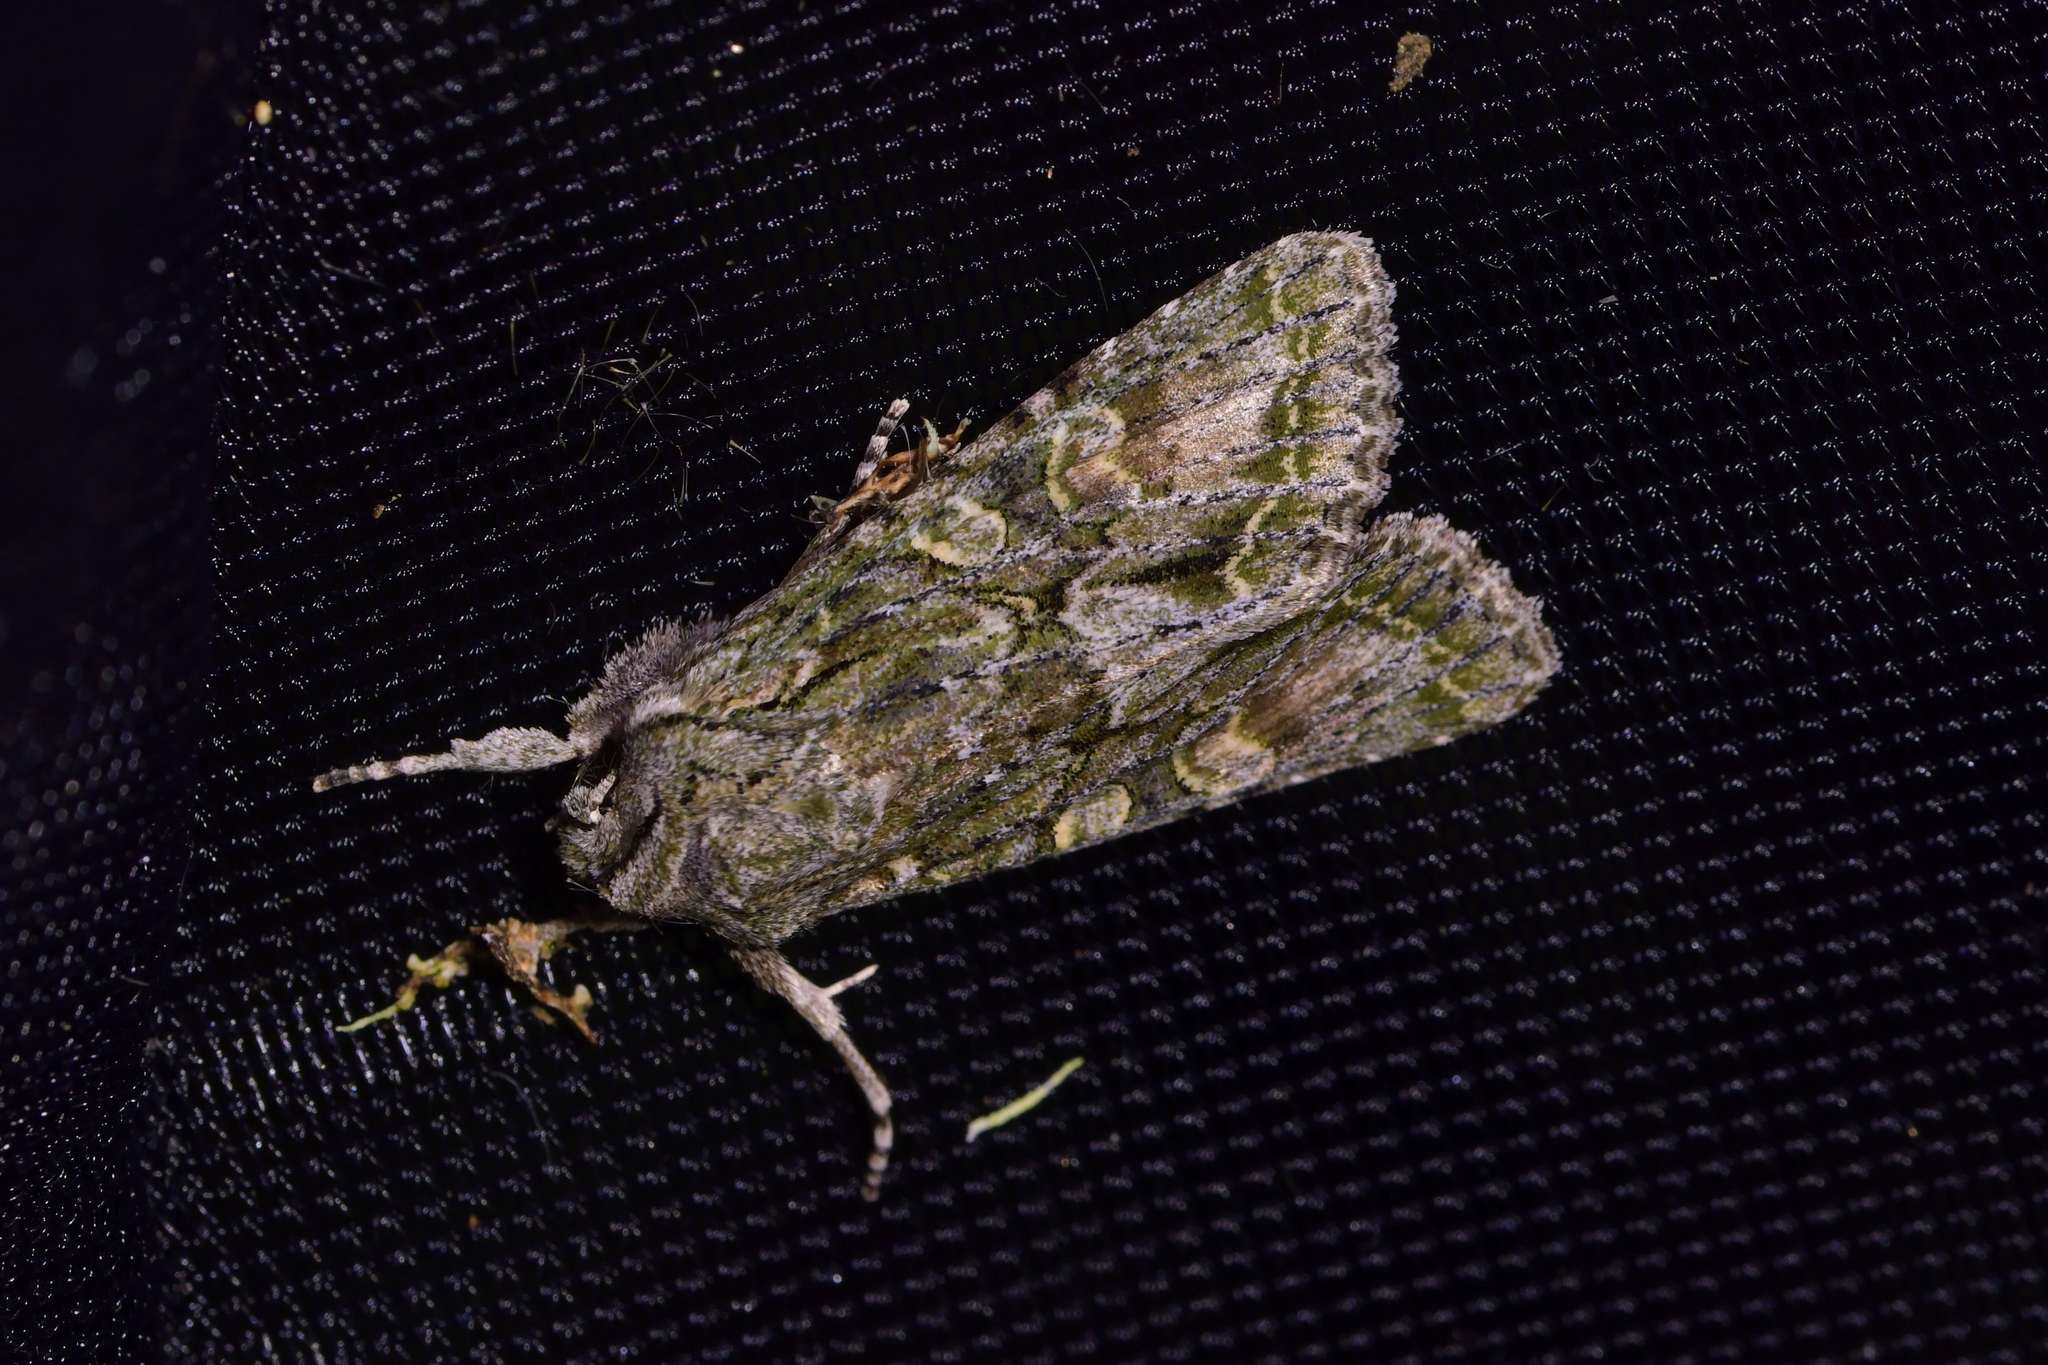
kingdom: Animalia
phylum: Arthropoda
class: Insecta
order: Lepidoptera
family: Noctuidae
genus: Ichneutica
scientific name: Ichneutica mutans
